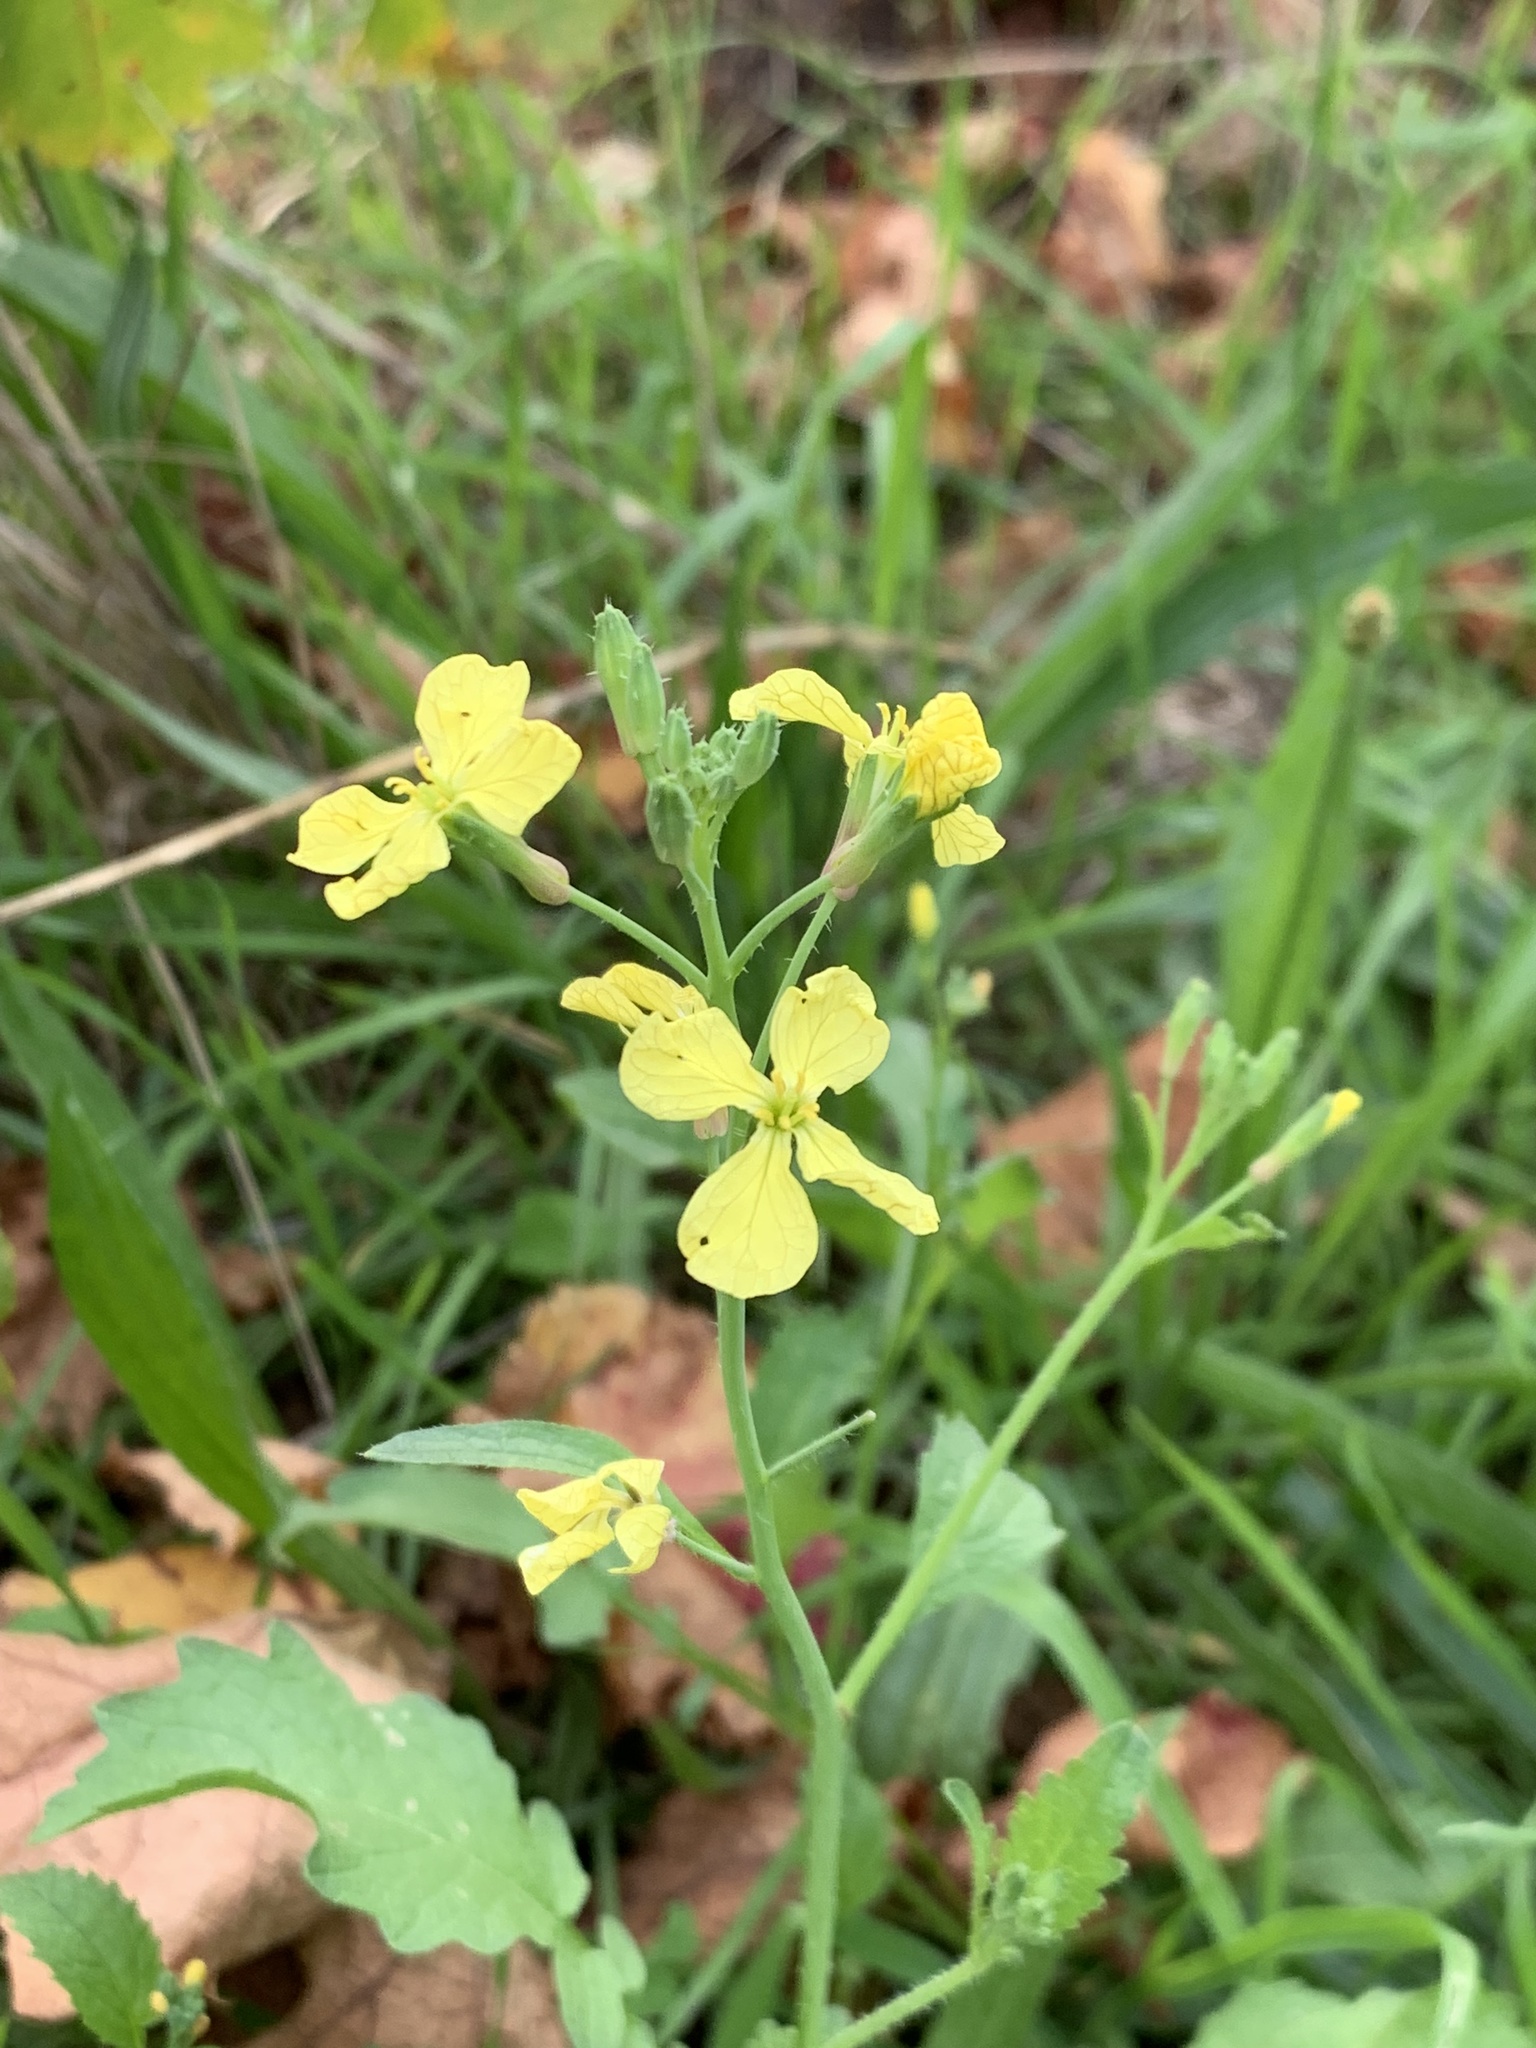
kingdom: Plantae
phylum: Tracheophyta
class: Magnoliopsida
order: Brassicales
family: Brassicaceae
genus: Raphanus
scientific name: Raphanus raphanistrum
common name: Wild radish
